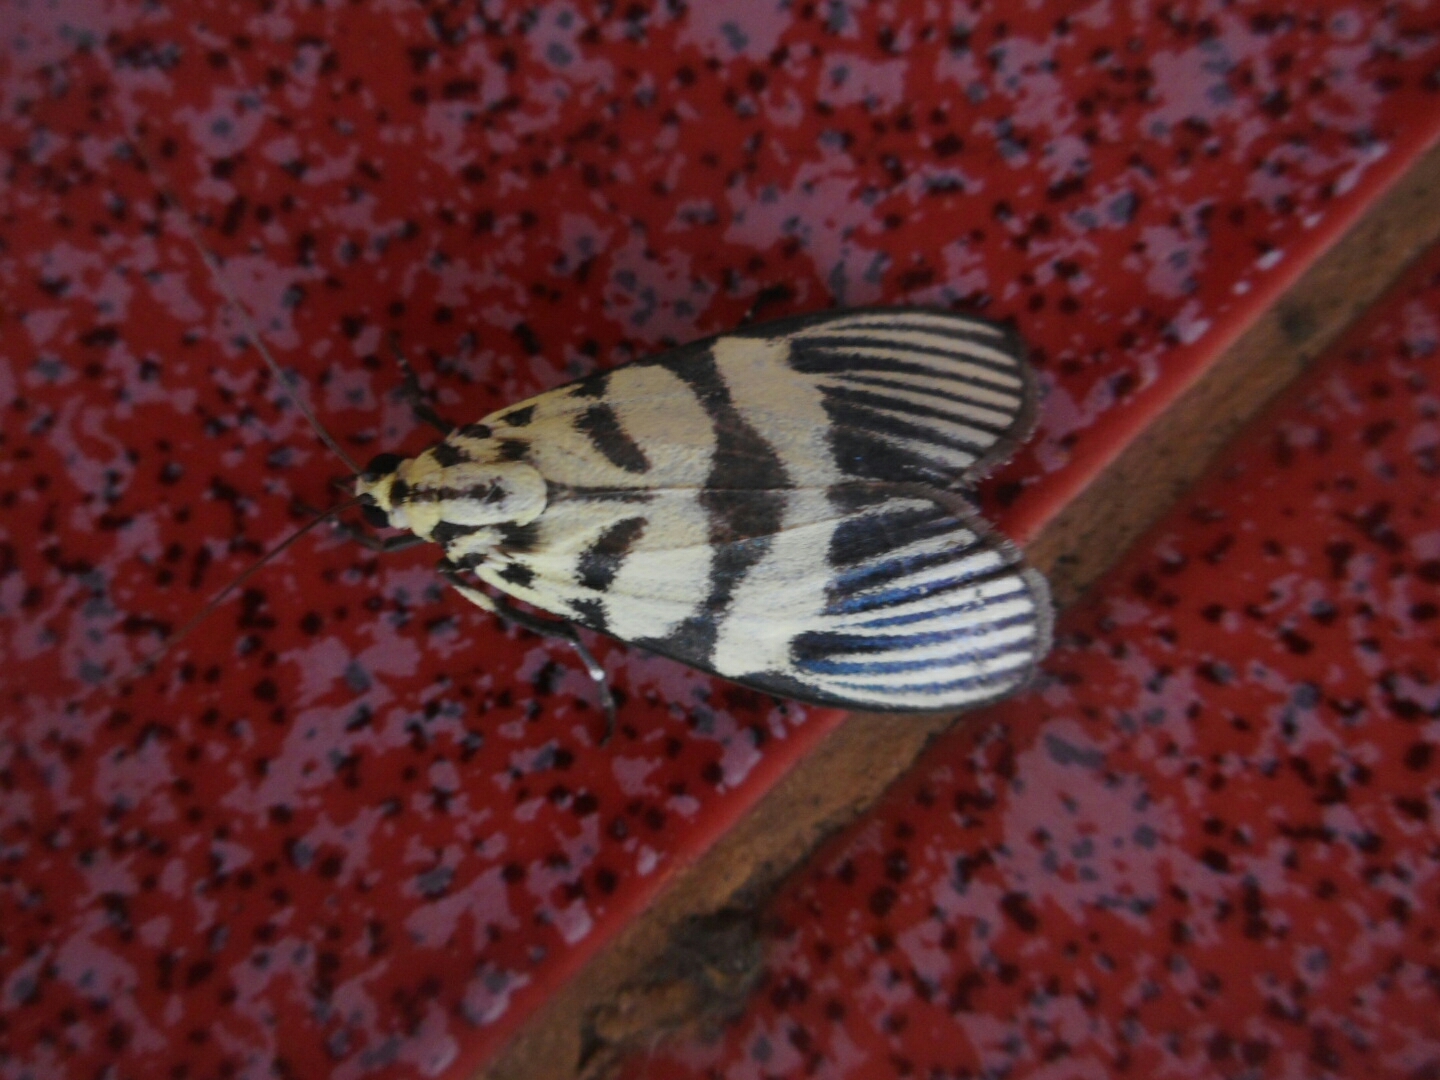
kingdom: Animalia
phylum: Arthropoda
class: Insecta
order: Lepidoptera
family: Crambidae
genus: Heortia
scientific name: Heortia vitessoides
